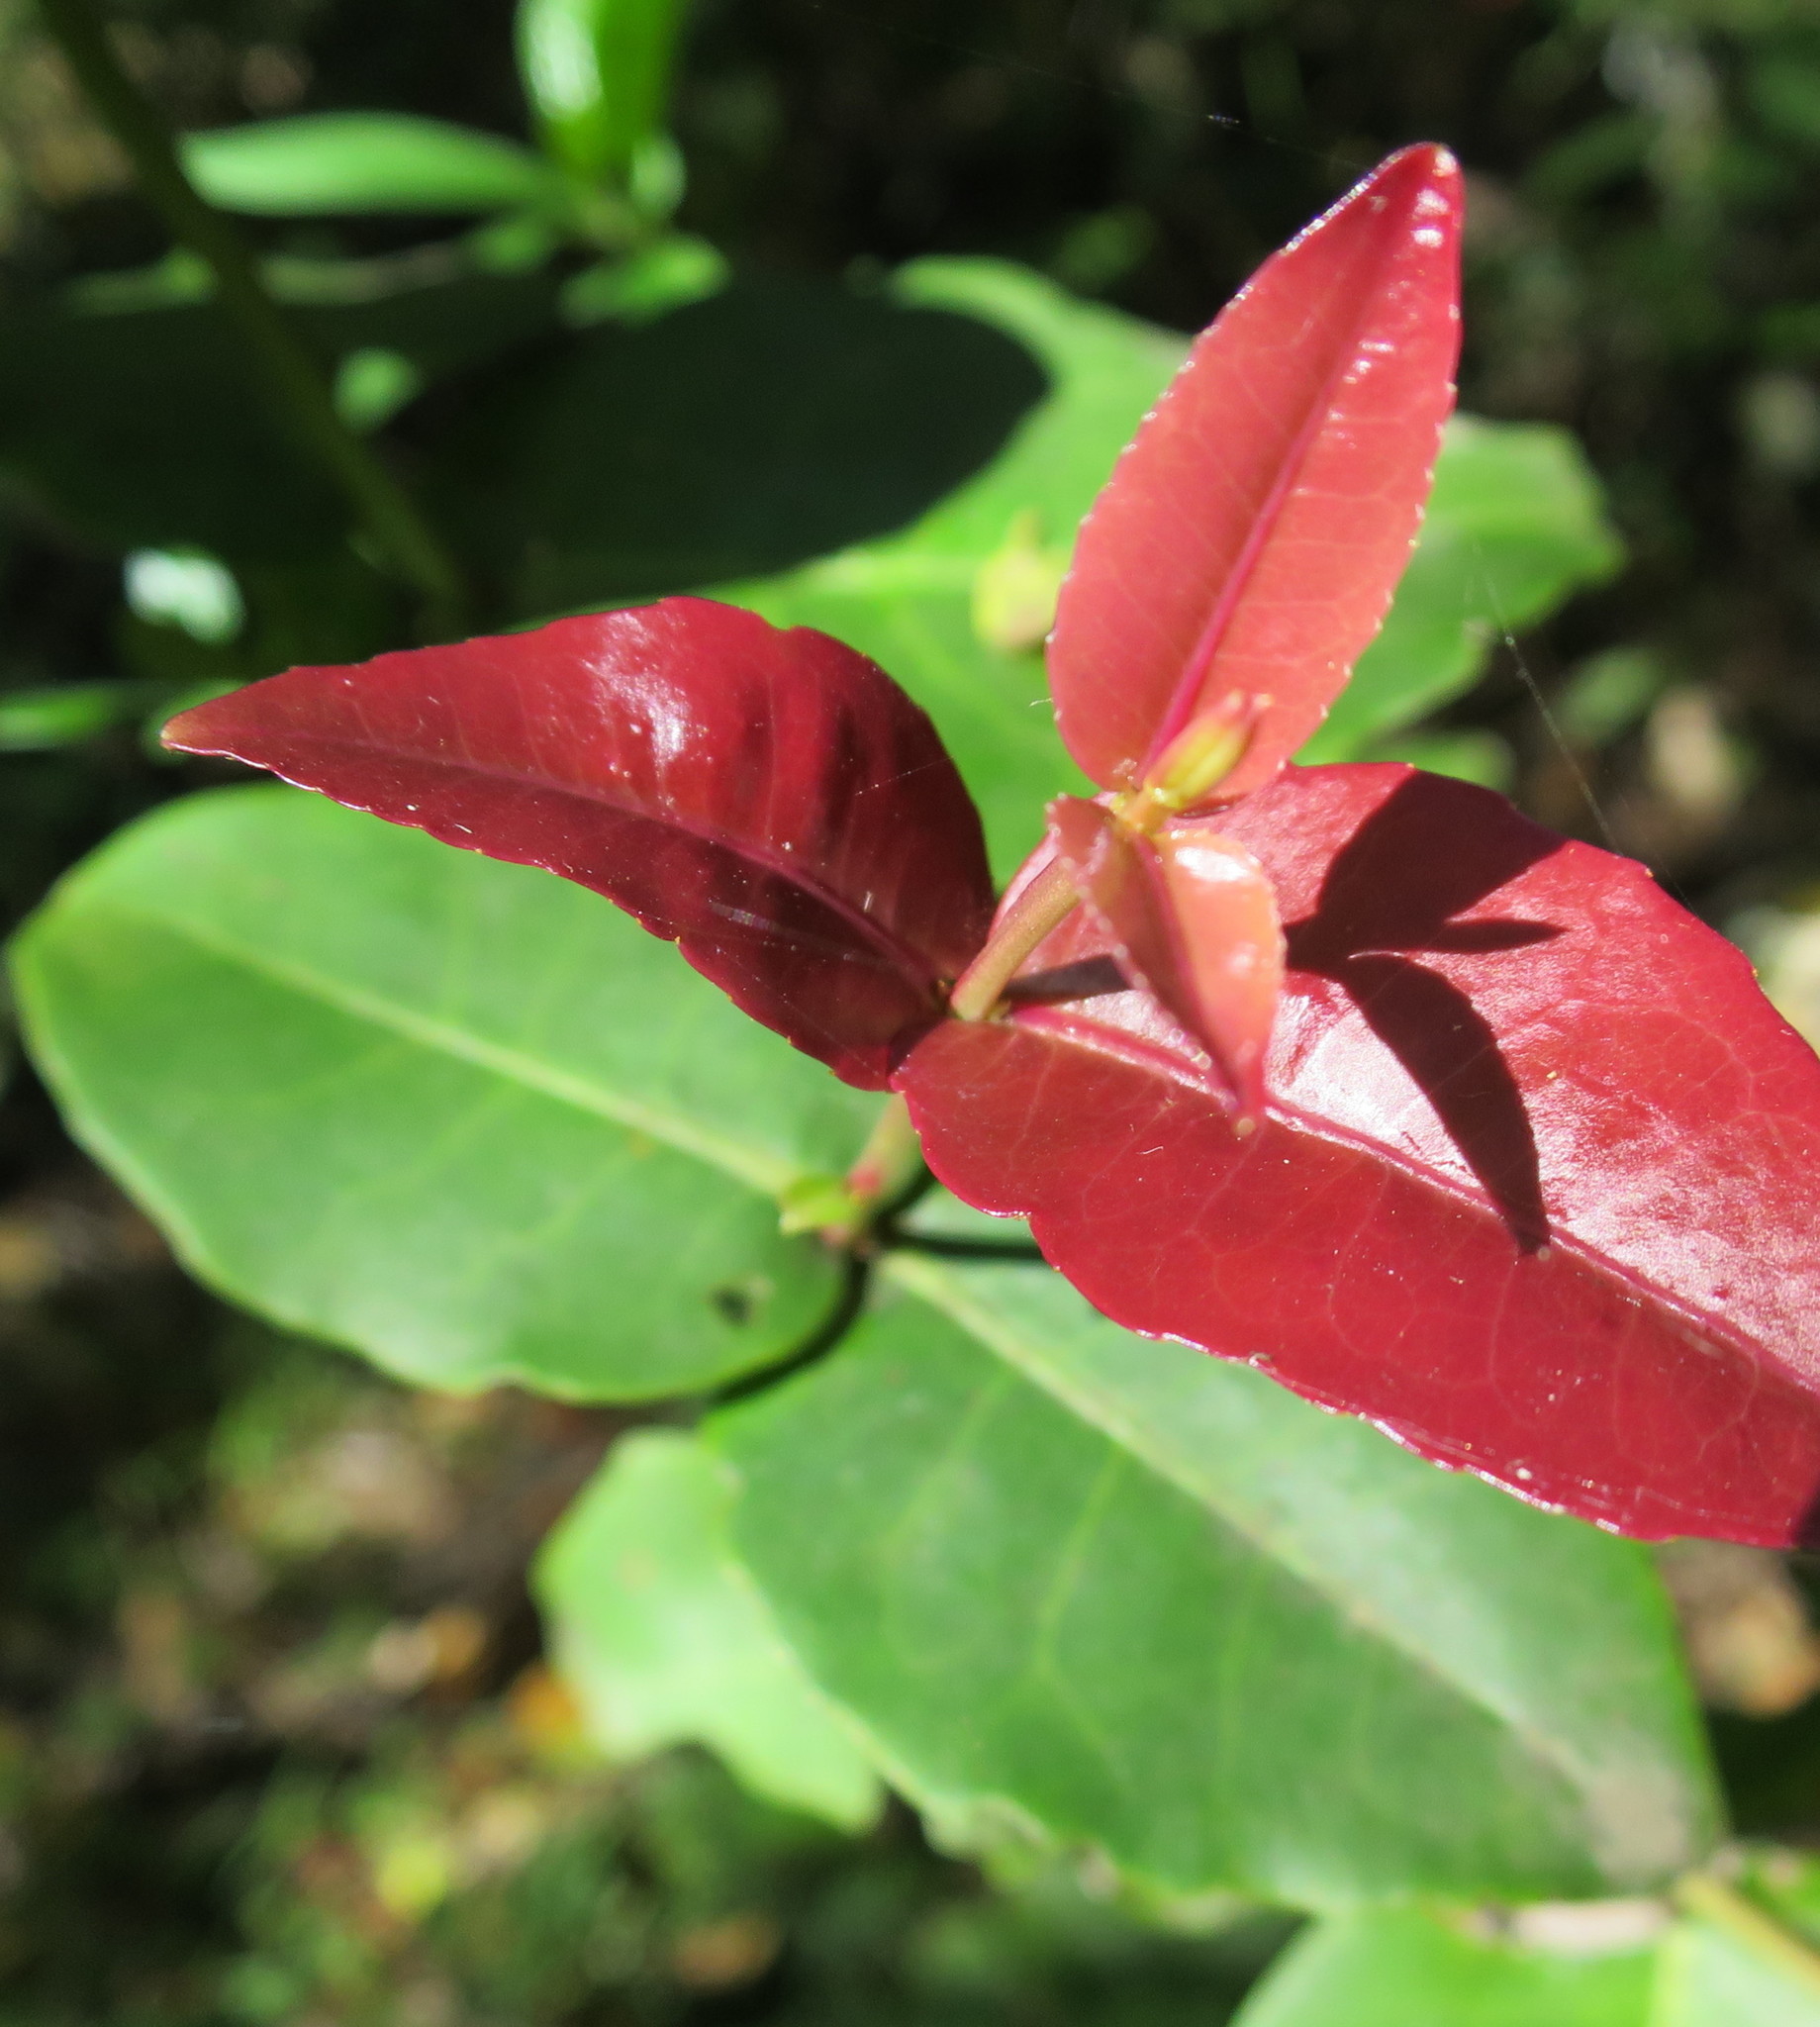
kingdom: Plantae
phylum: Tracheophyta
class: Magnoliopsida
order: Celastrales
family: Celastraceae
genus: Lauridia
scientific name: Lauridia tetragona
